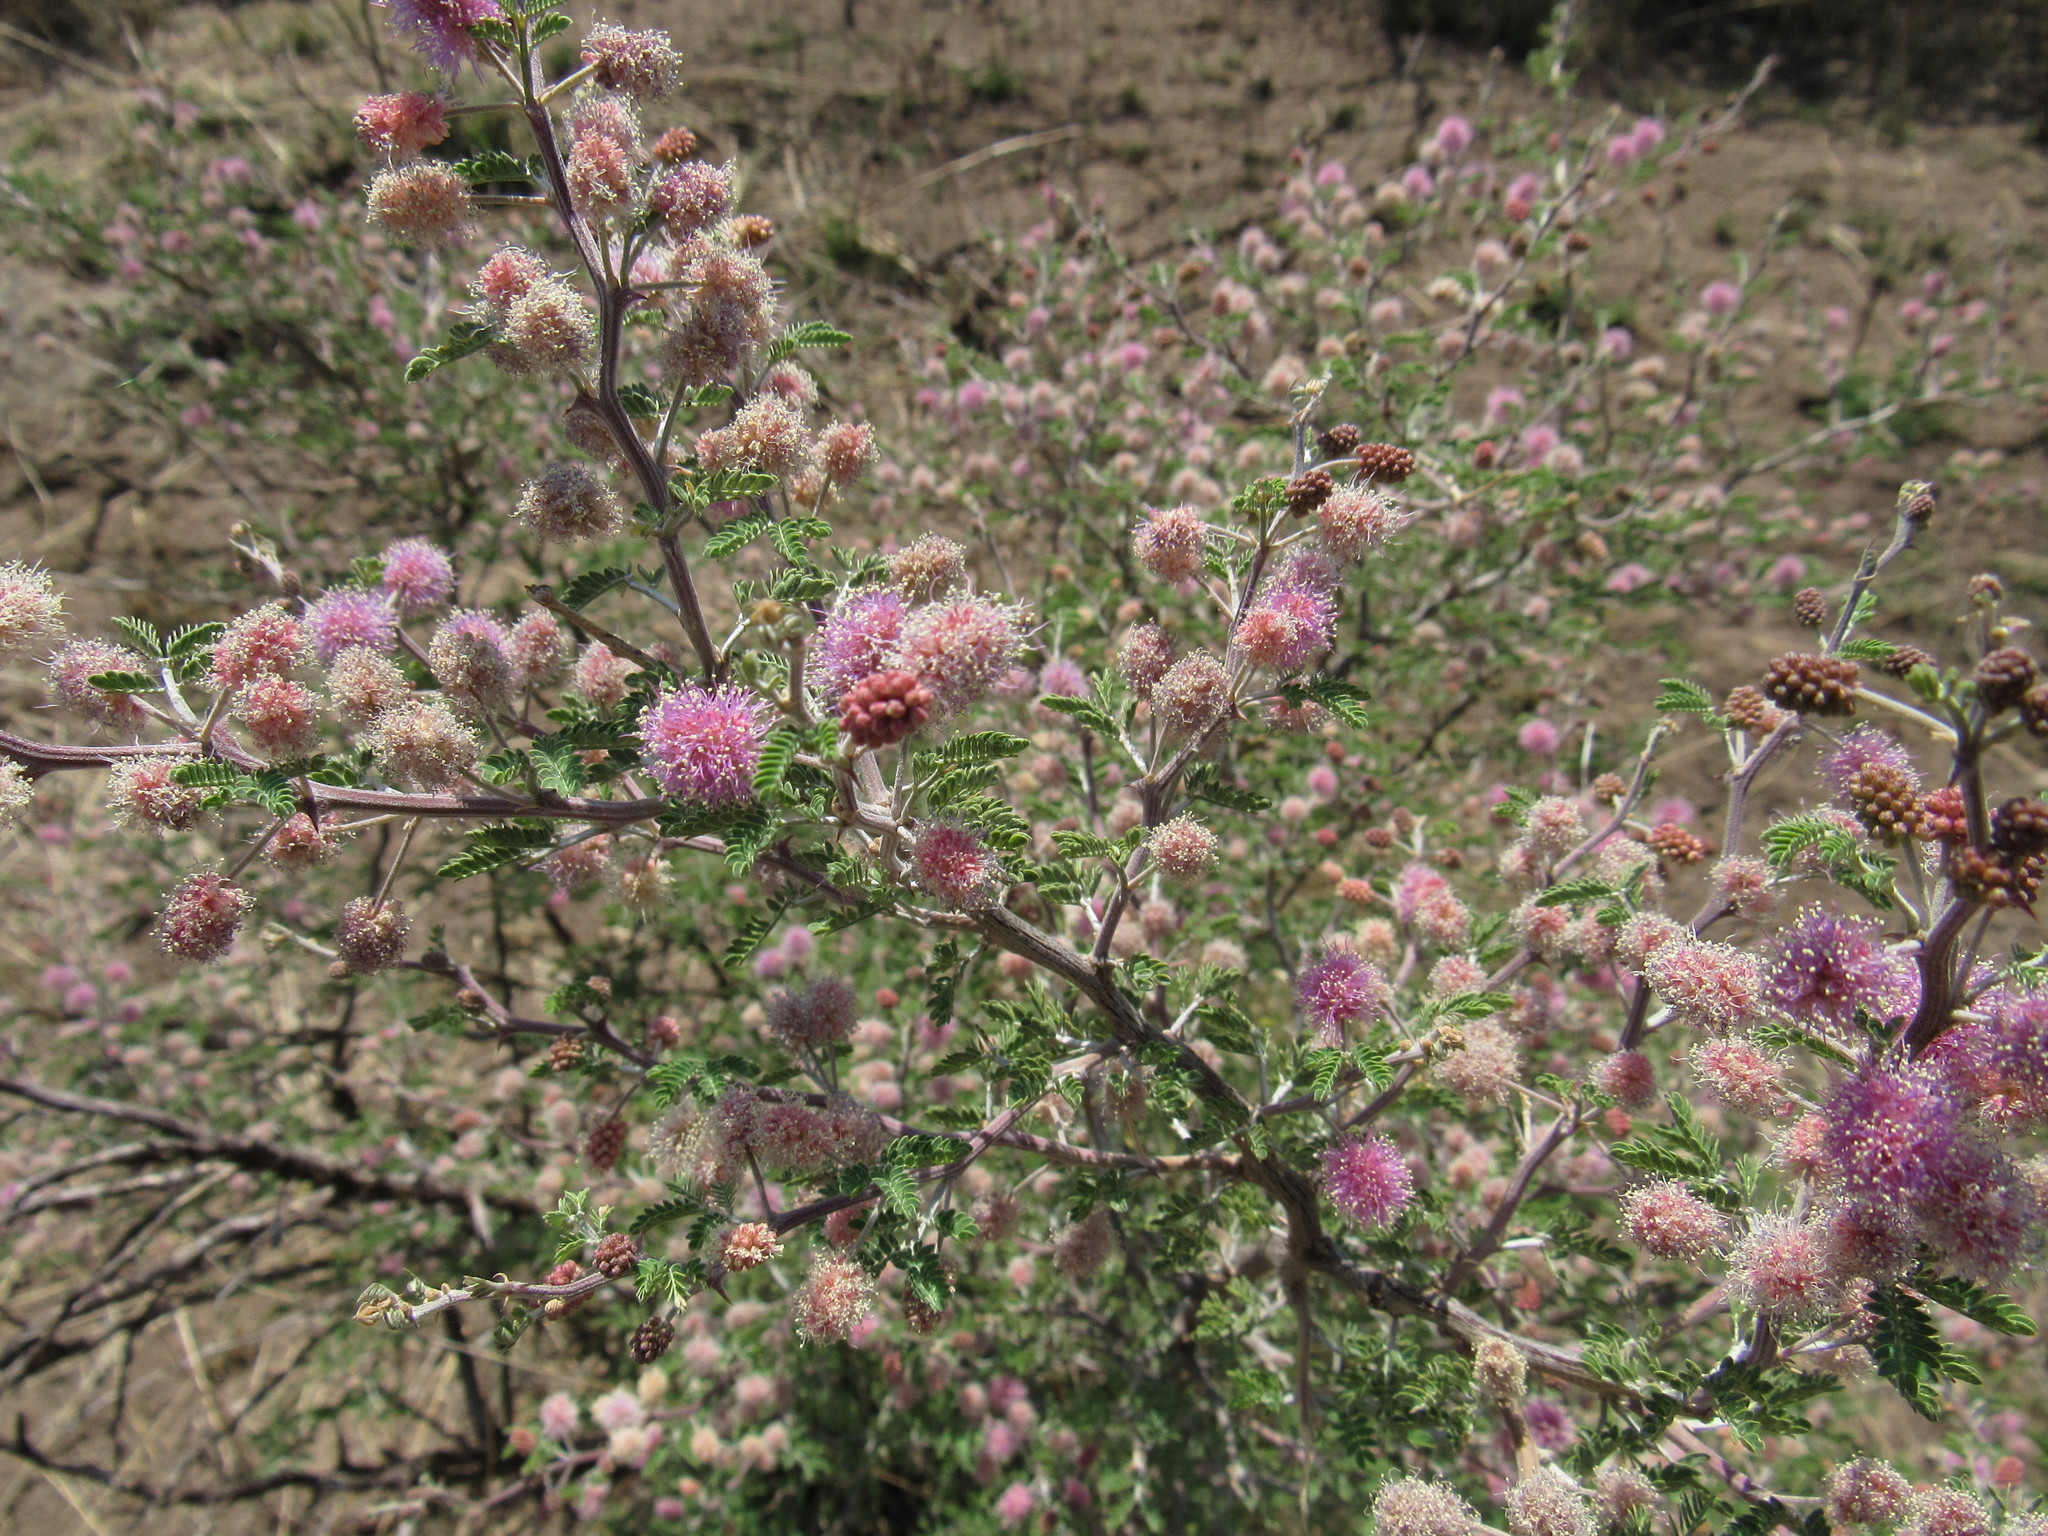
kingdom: Plantae
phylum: Tracheophyta
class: Magnoliopsida
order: Fabales
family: Fabaceae
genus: Mimosa
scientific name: Mimosa aculeaticarpa
